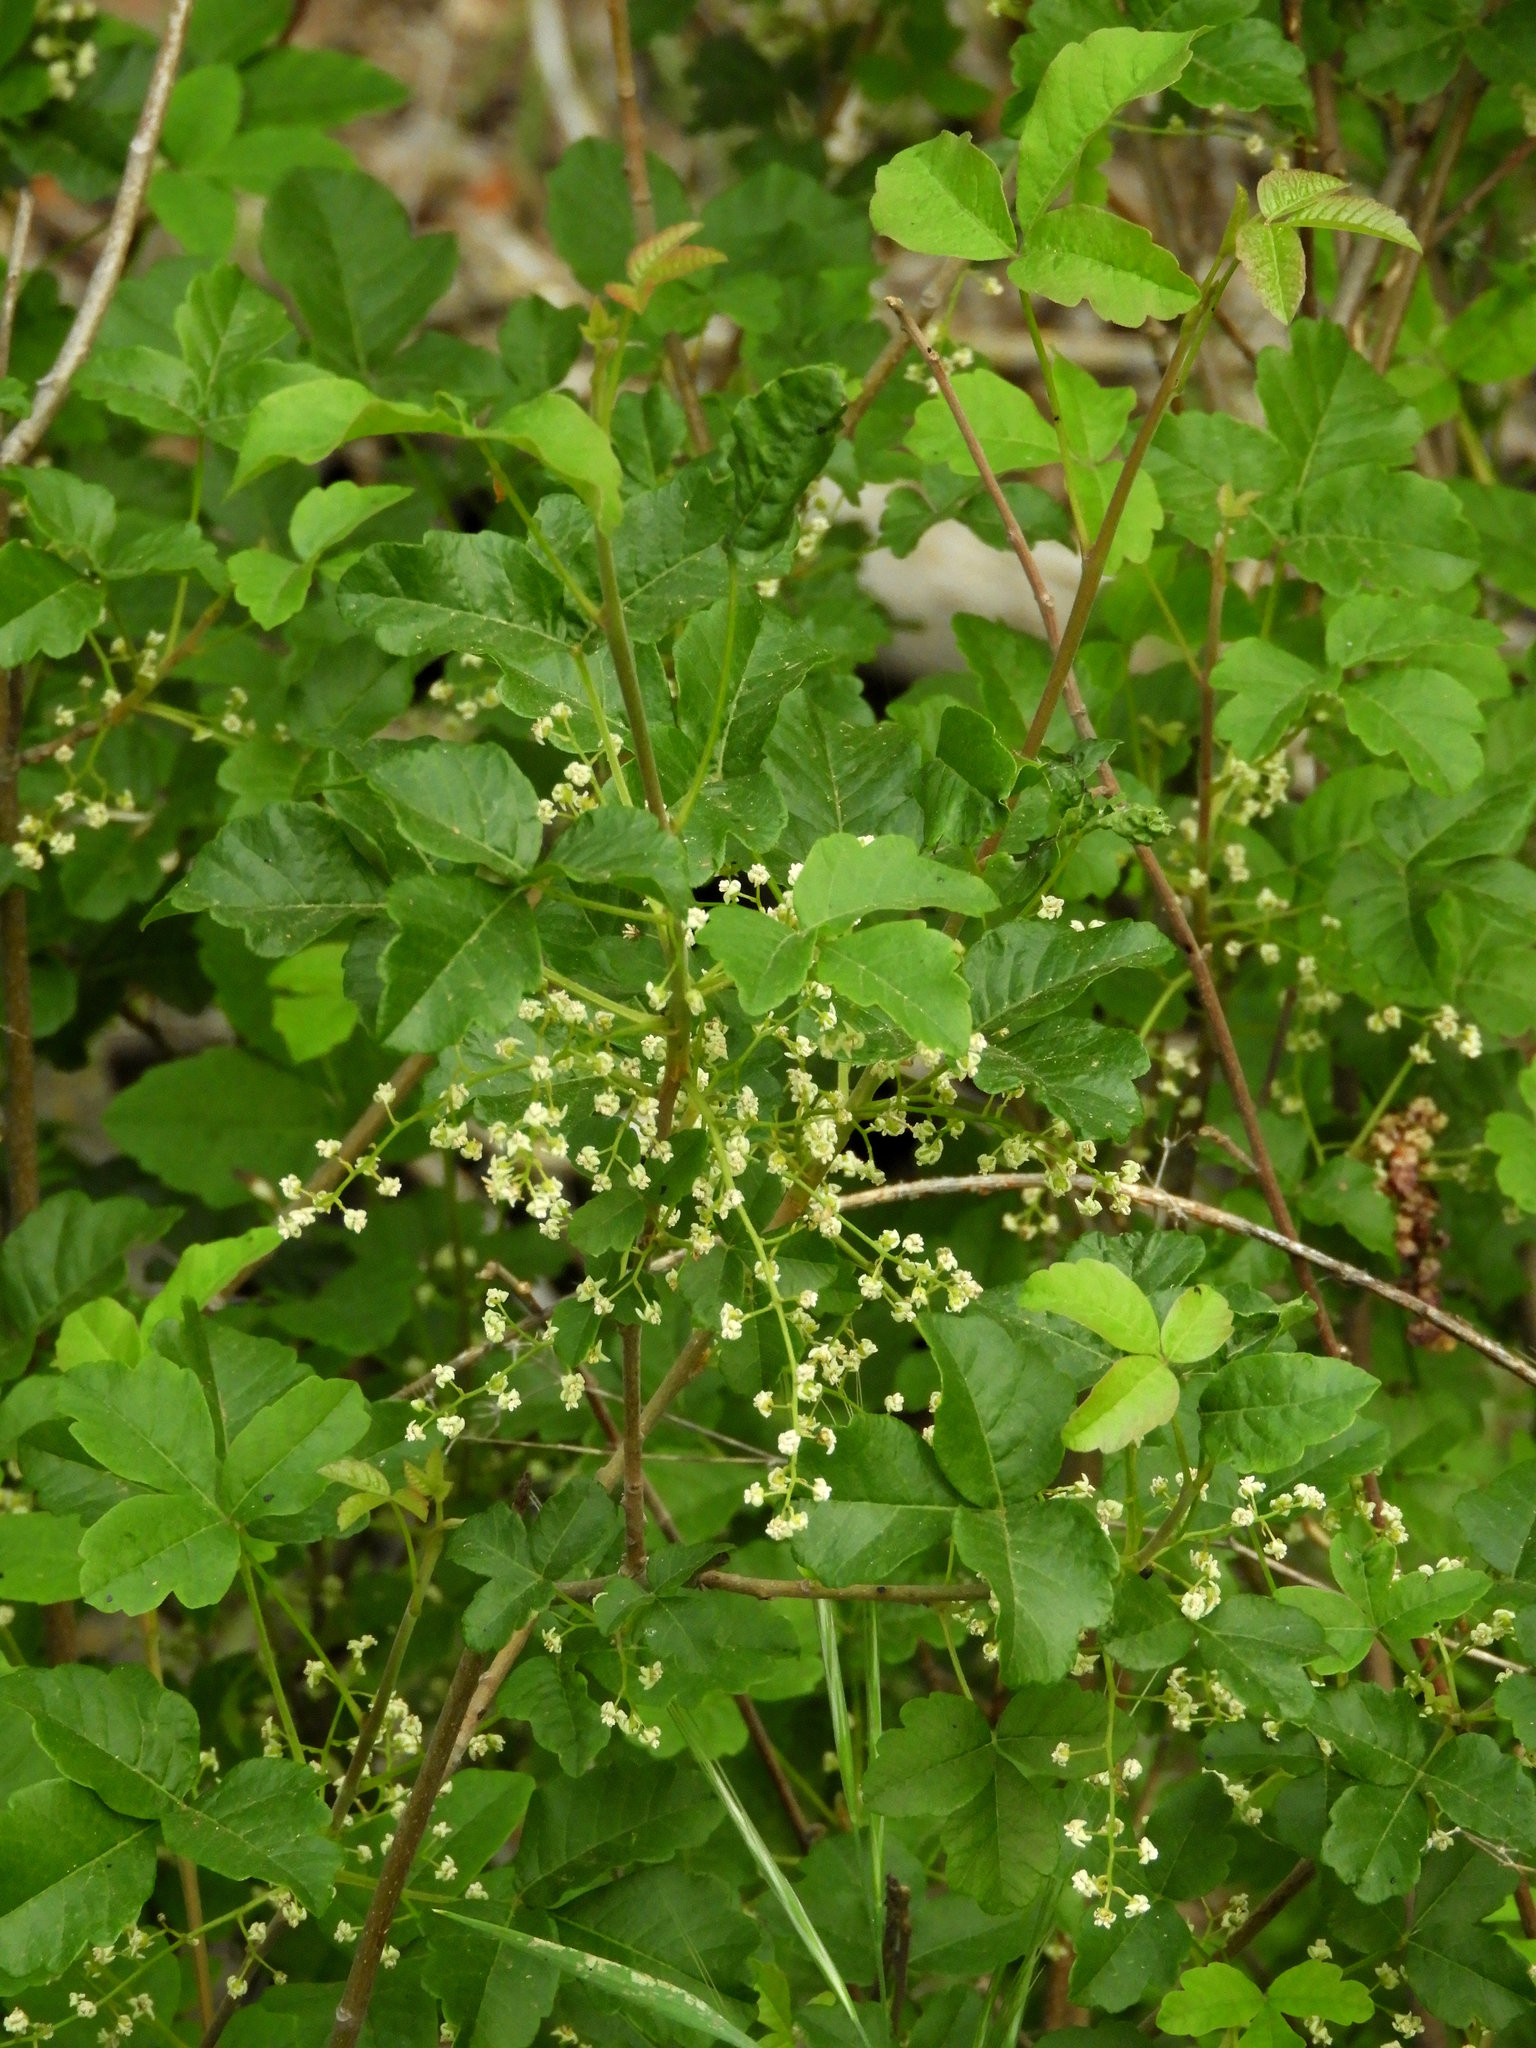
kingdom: Plantae
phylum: Tracheophyta
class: Magnoliopsida
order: Sapindales
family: Anacardiaceae
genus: Toxicodendron
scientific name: Toxicodendron diversilobum
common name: Pacific poison-oak
